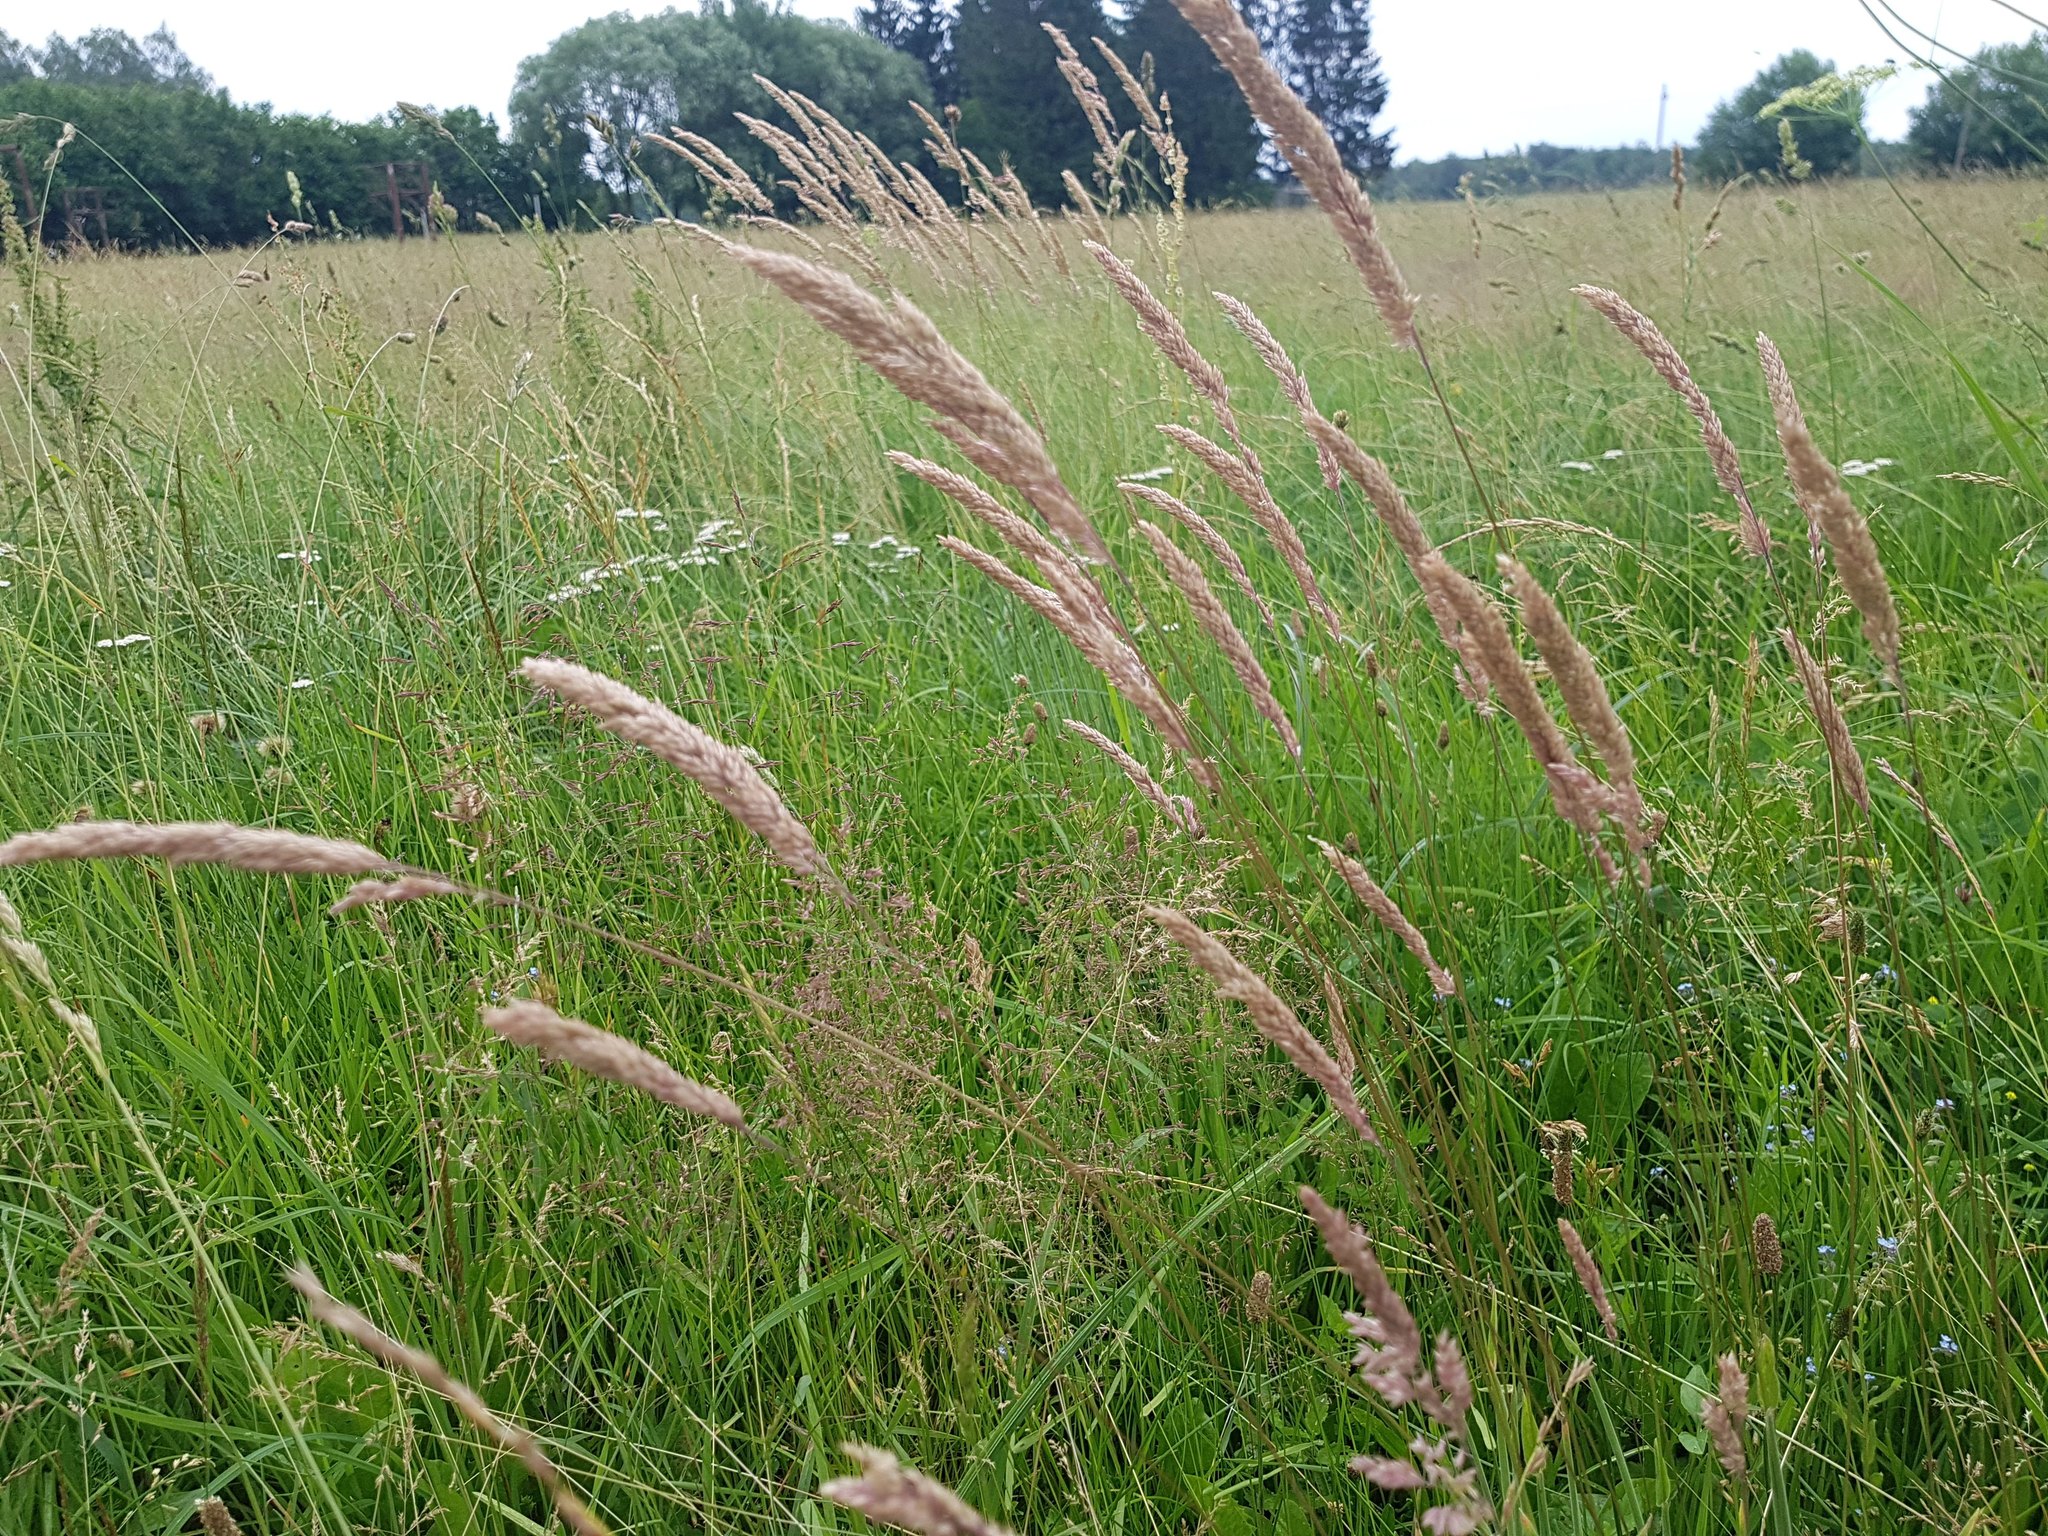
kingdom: Plantae
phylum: Tracheophyta
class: Liliopsida
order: Poales
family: Poaceae
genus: Holcus
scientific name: Holcus lanatus
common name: Yorkshire-fog
